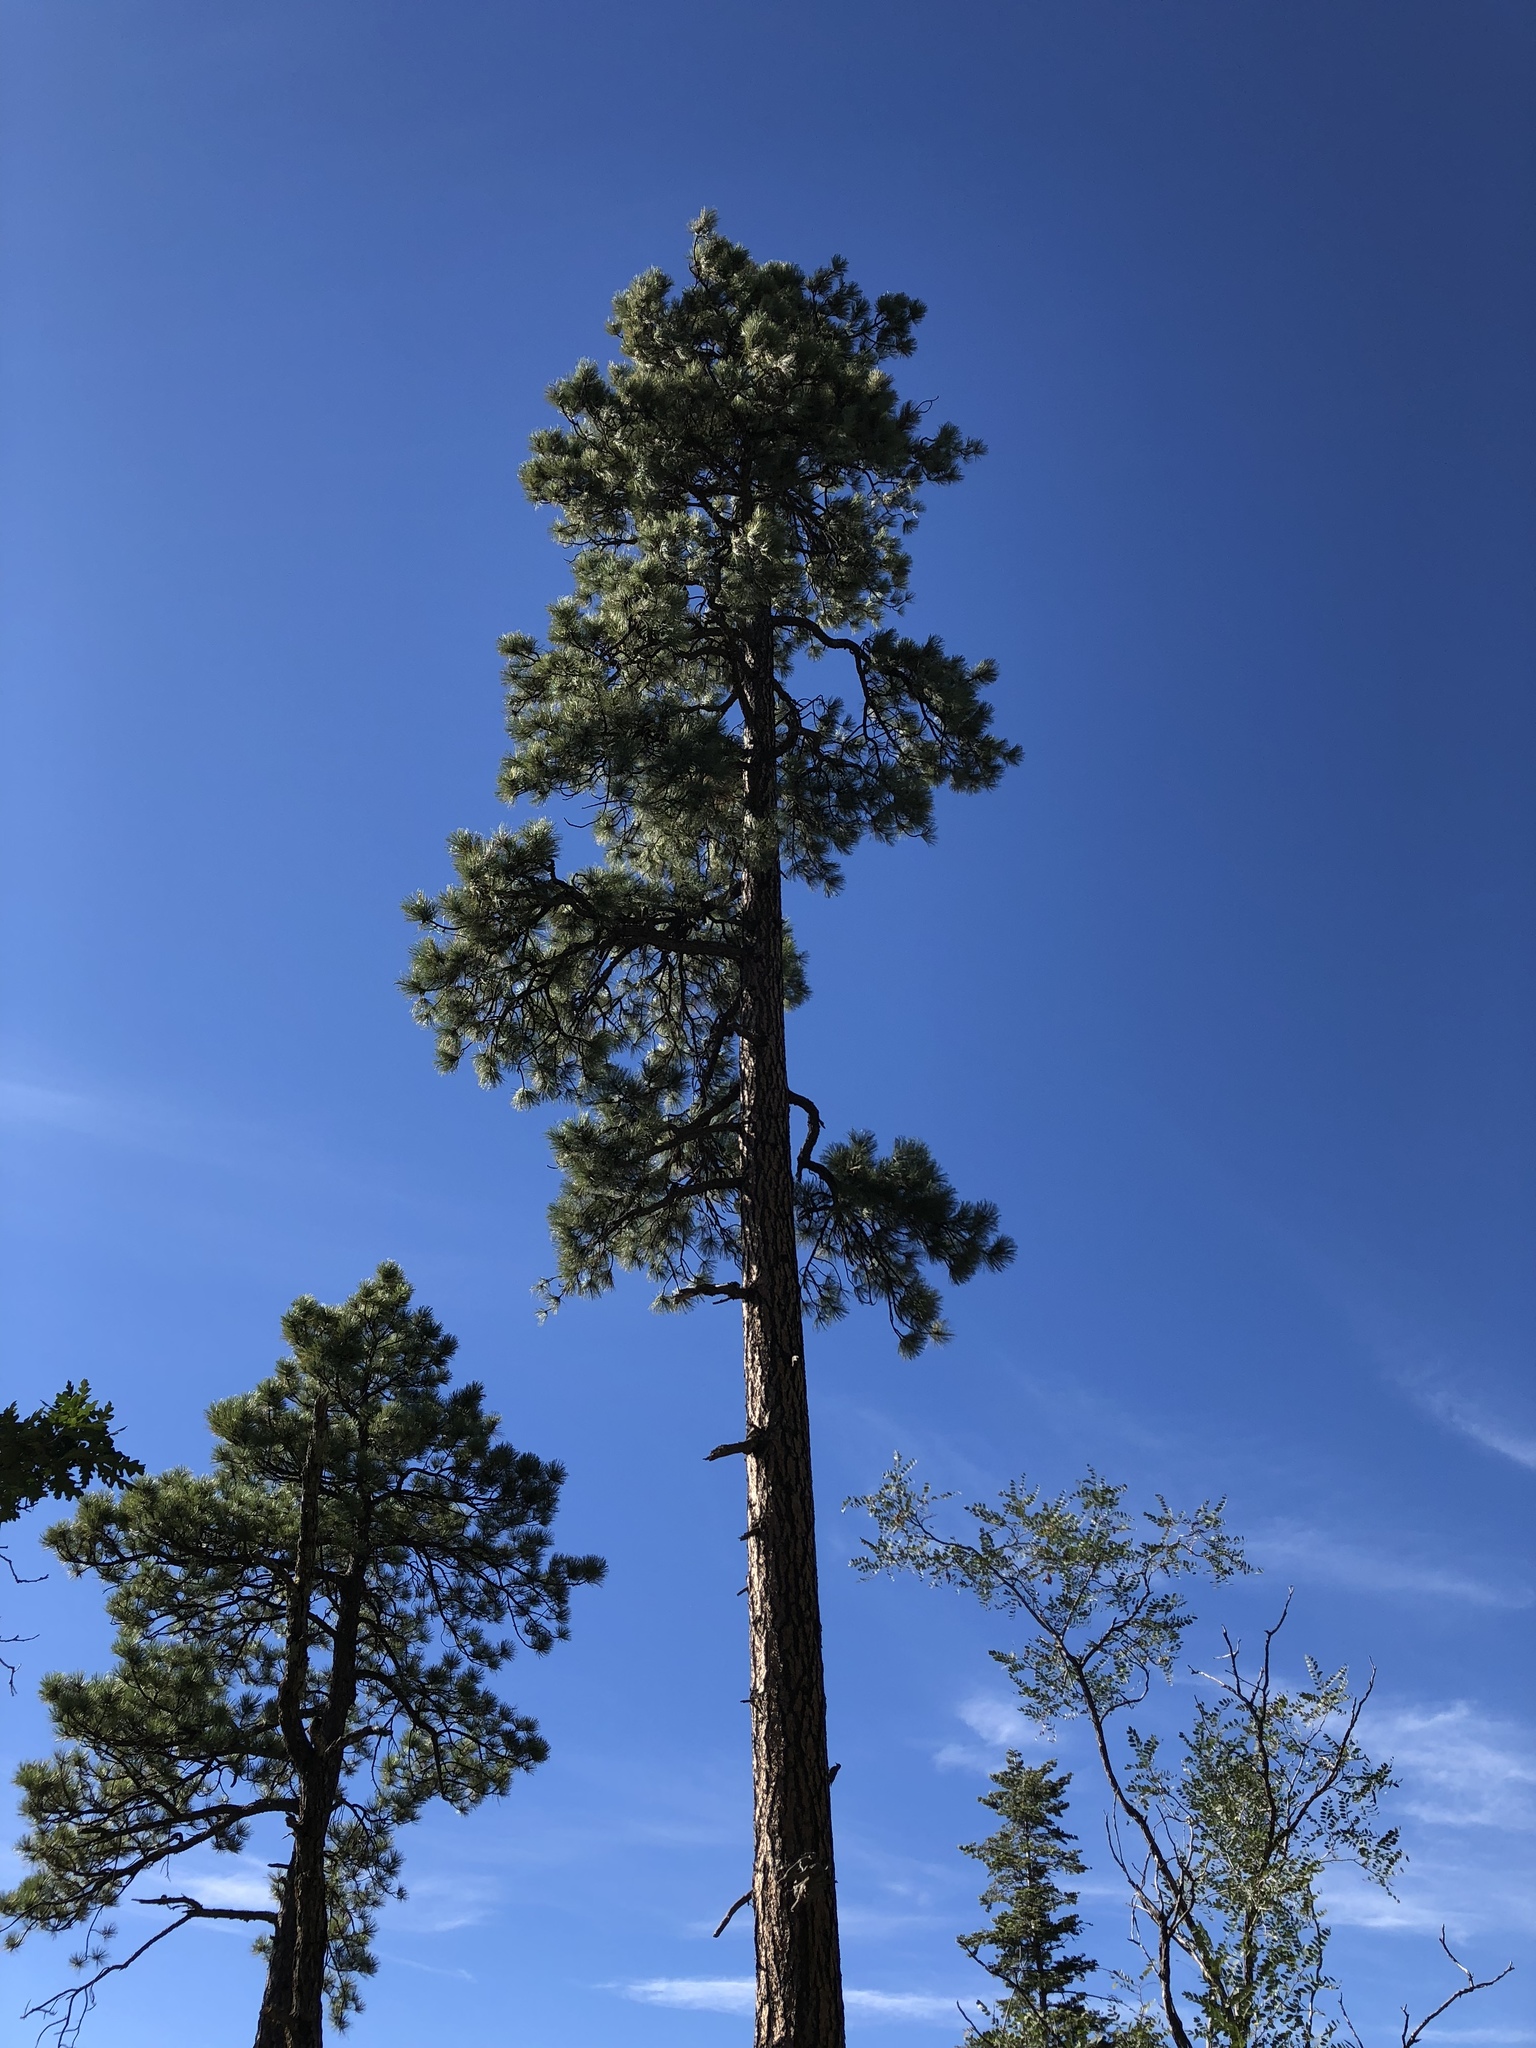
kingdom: Plantae
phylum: Tracheophyta
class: Pinopsida
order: Pinales
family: Pinaceae
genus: Pinus
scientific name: Pinus ponderosa
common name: Western yellow-pine
